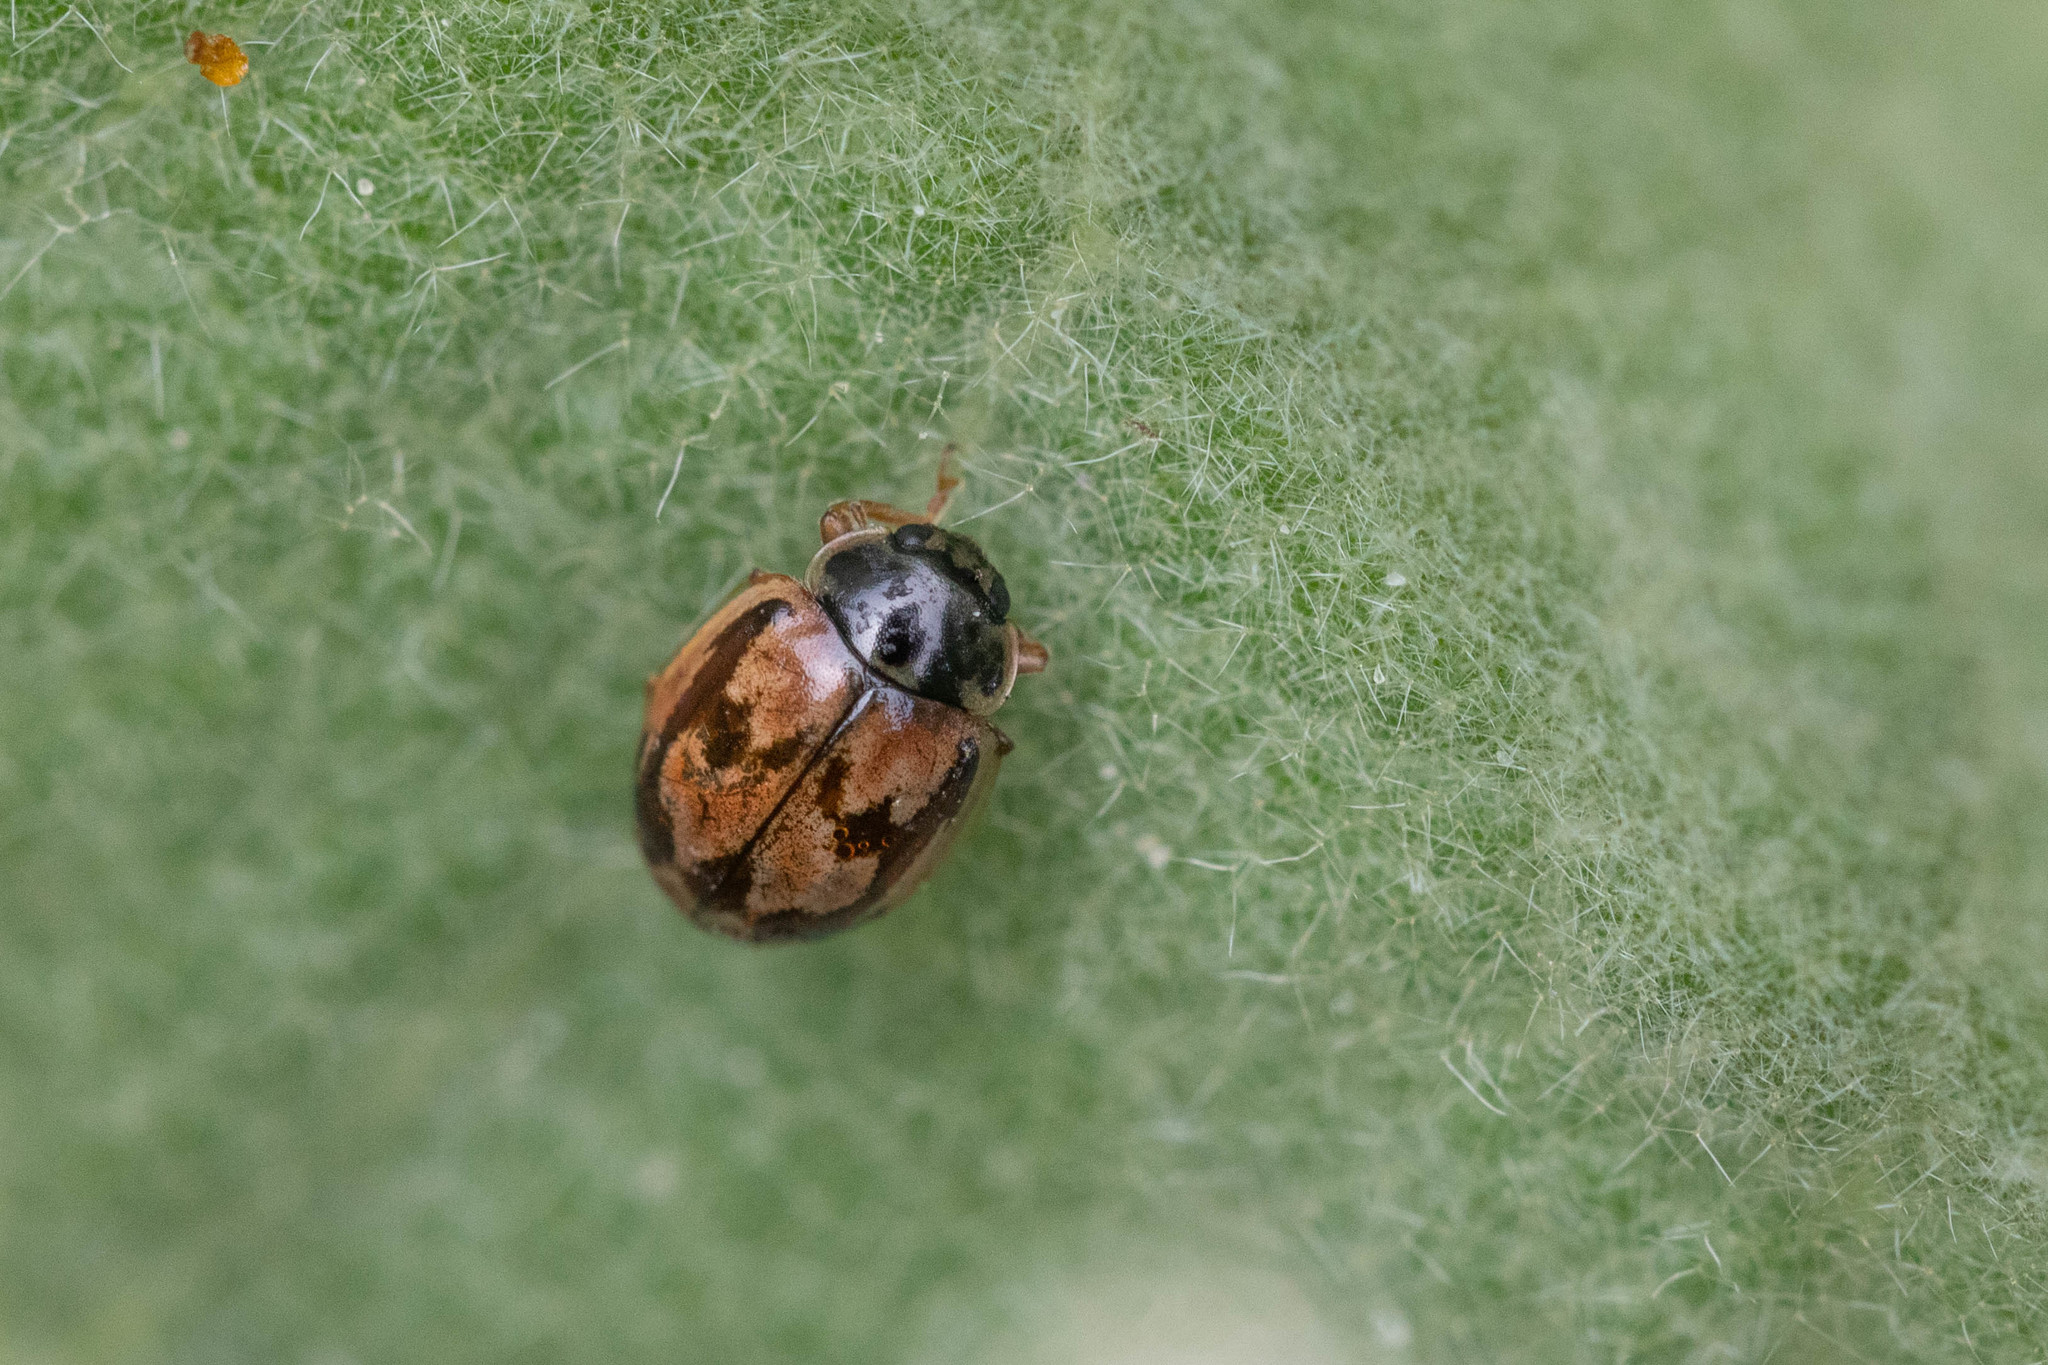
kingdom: Animalia
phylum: Arthropoda
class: Insecta
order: Coleoptera
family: Coccinellidae
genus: Mulsantina
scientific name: Mulsantina picta
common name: Painted ladybird
